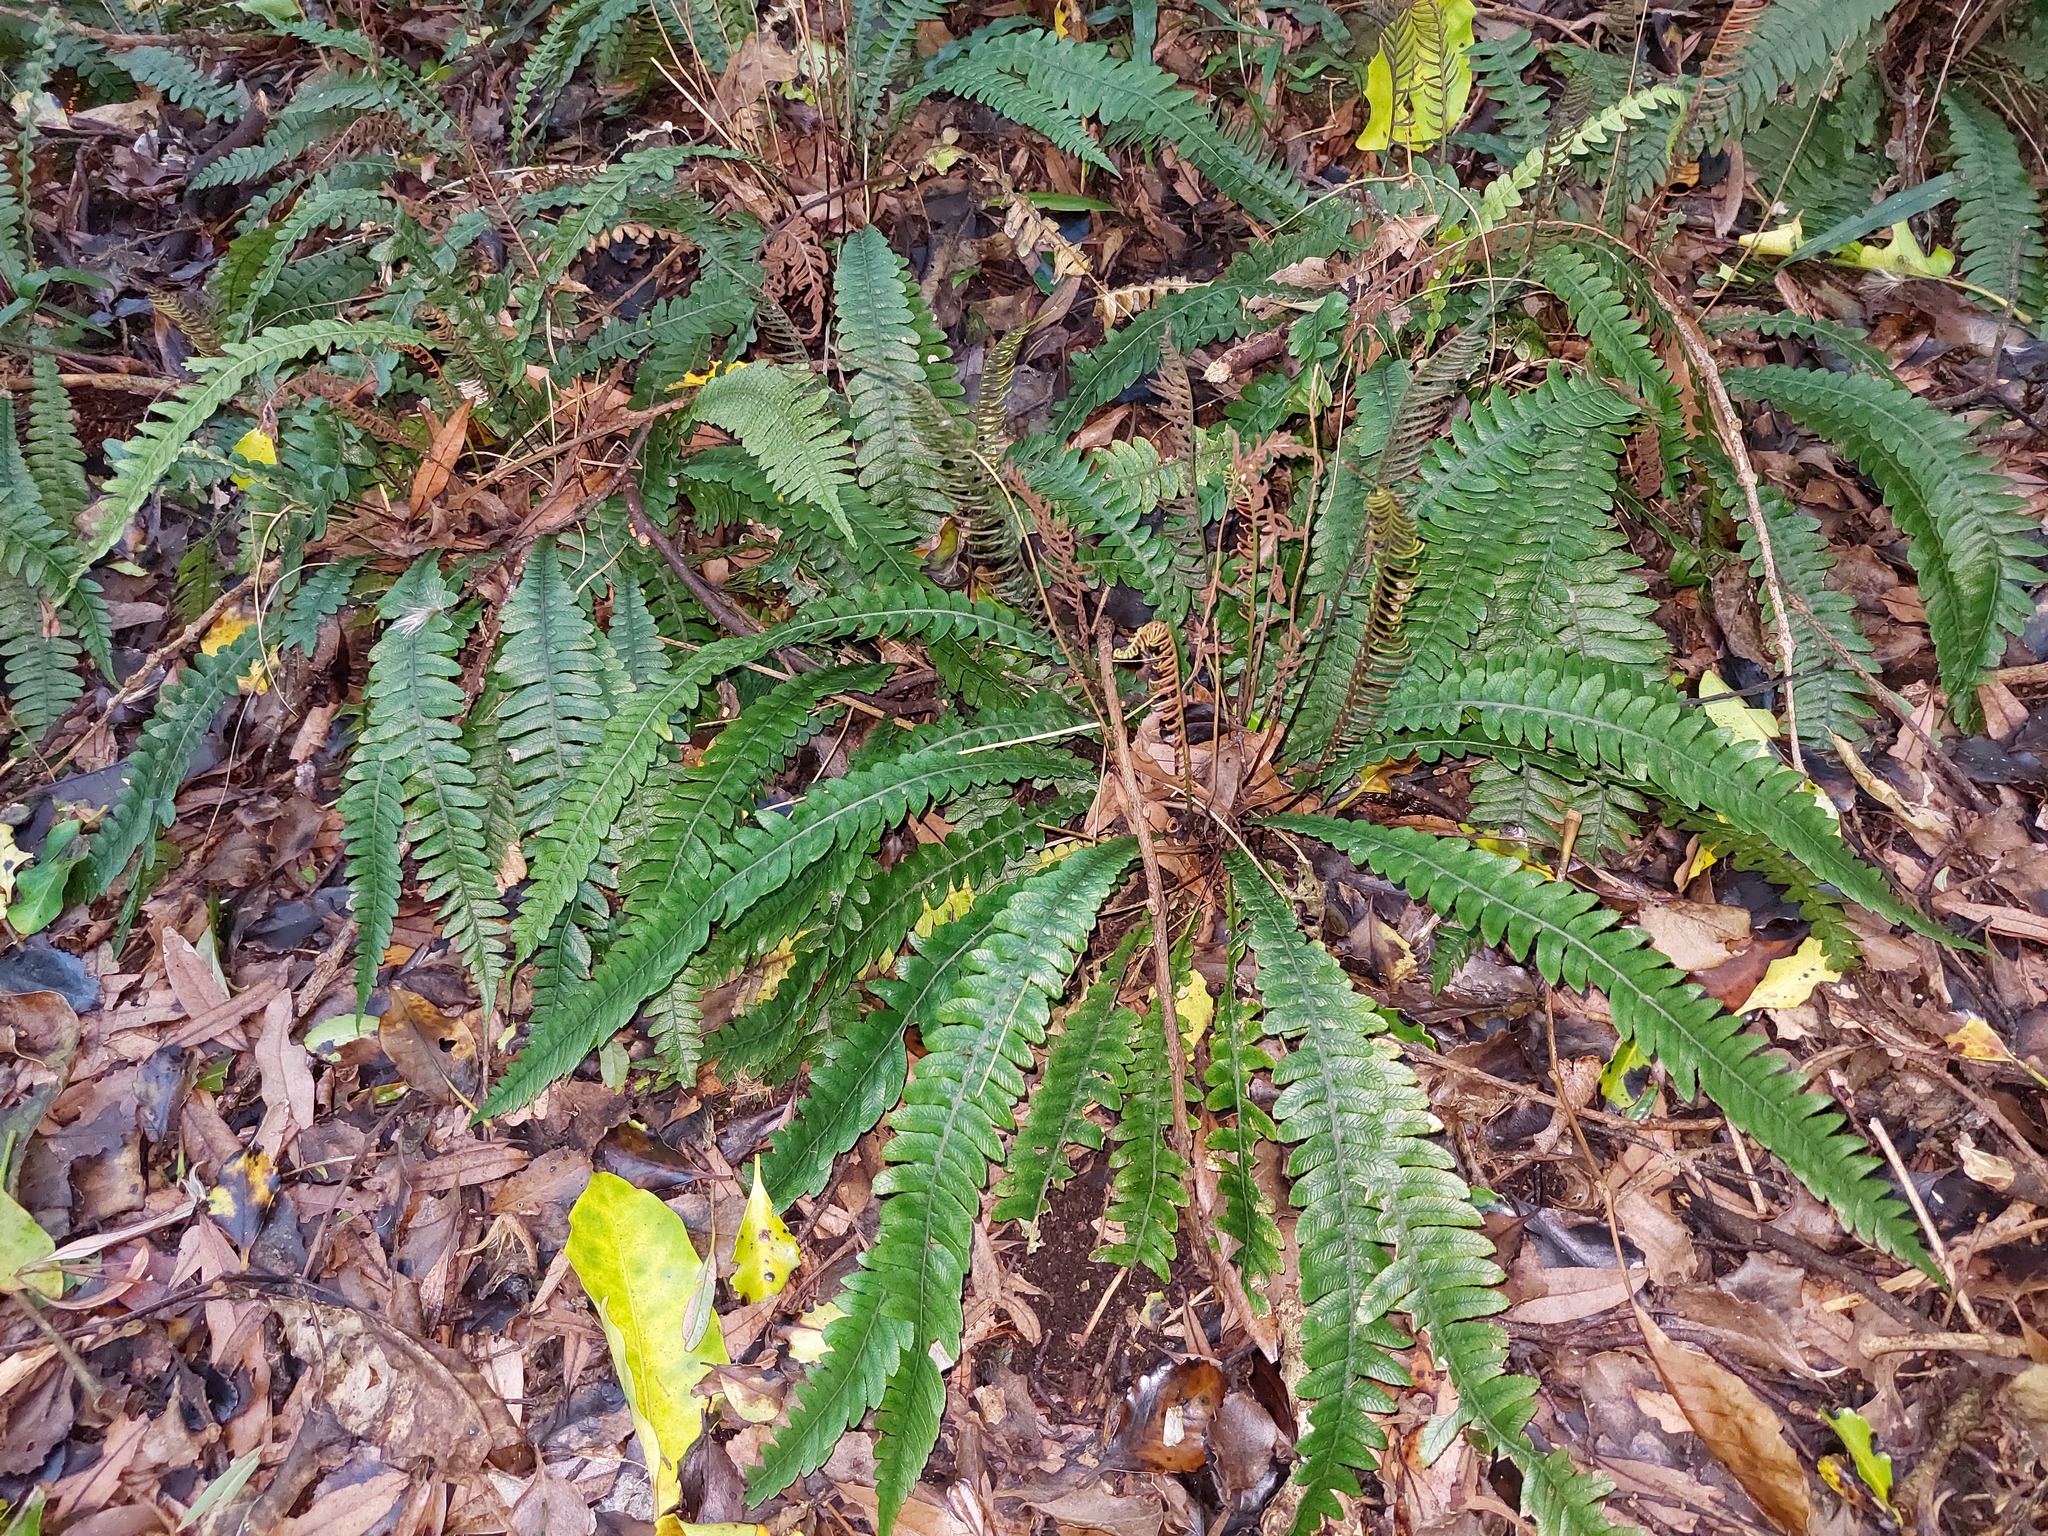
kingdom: Plantae
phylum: Tracheophyta
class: Polypodiopsida
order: Polypodiales
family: Blechnaceae
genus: Austroblechnum
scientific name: Austroblechnum lanceolatum
